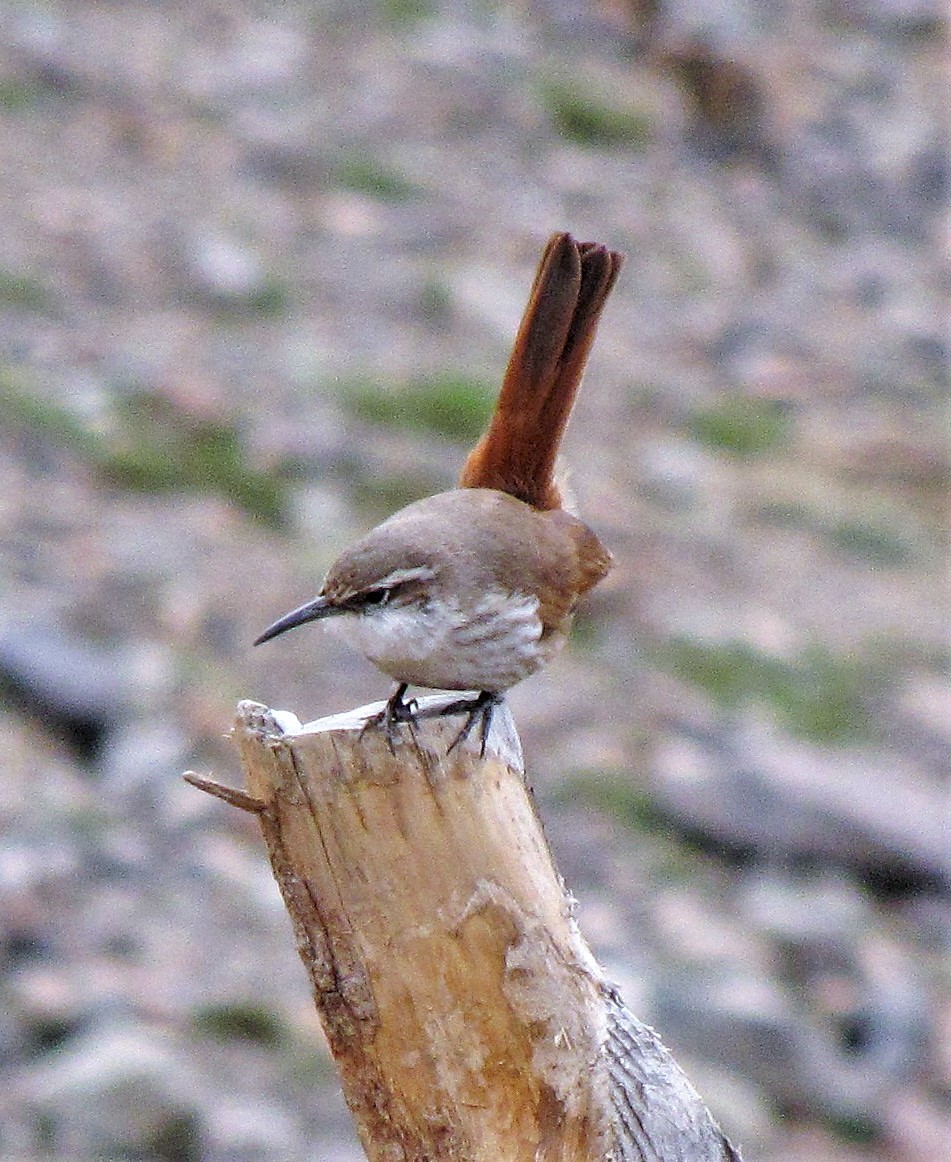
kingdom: Animalia
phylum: Chordata
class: Aves
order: Passeriformes
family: Furnariidae
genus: Upucerthia
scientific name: Upucerthia ruficaudus
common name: Straight-billed earthcreeper
